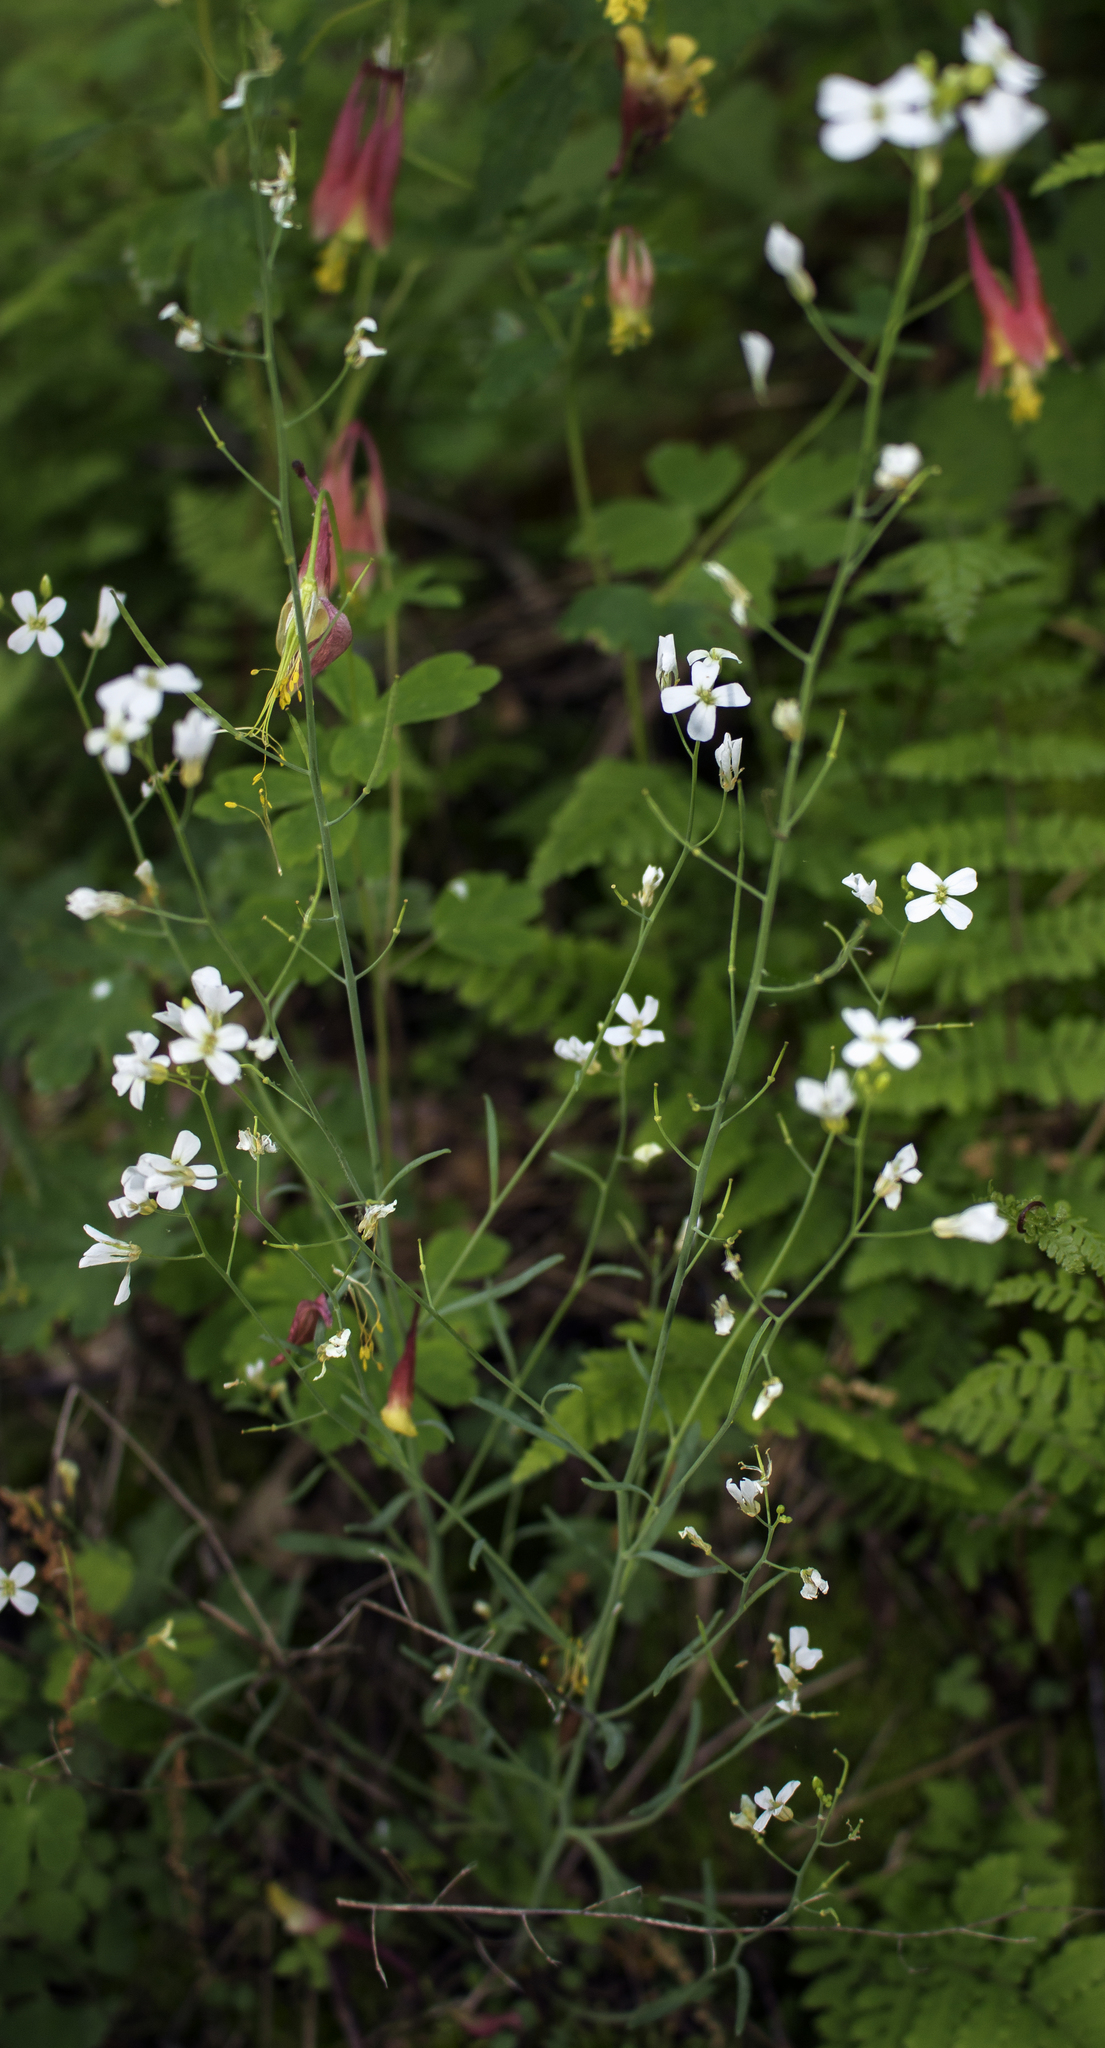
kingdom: Plantae
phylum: Tracheophyta
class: Magnoliopsida
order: Brassicales
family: Brassicaceae
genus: Arabidopsis
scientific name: Arabidopsis lyrata
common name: Lyrate rockcress
